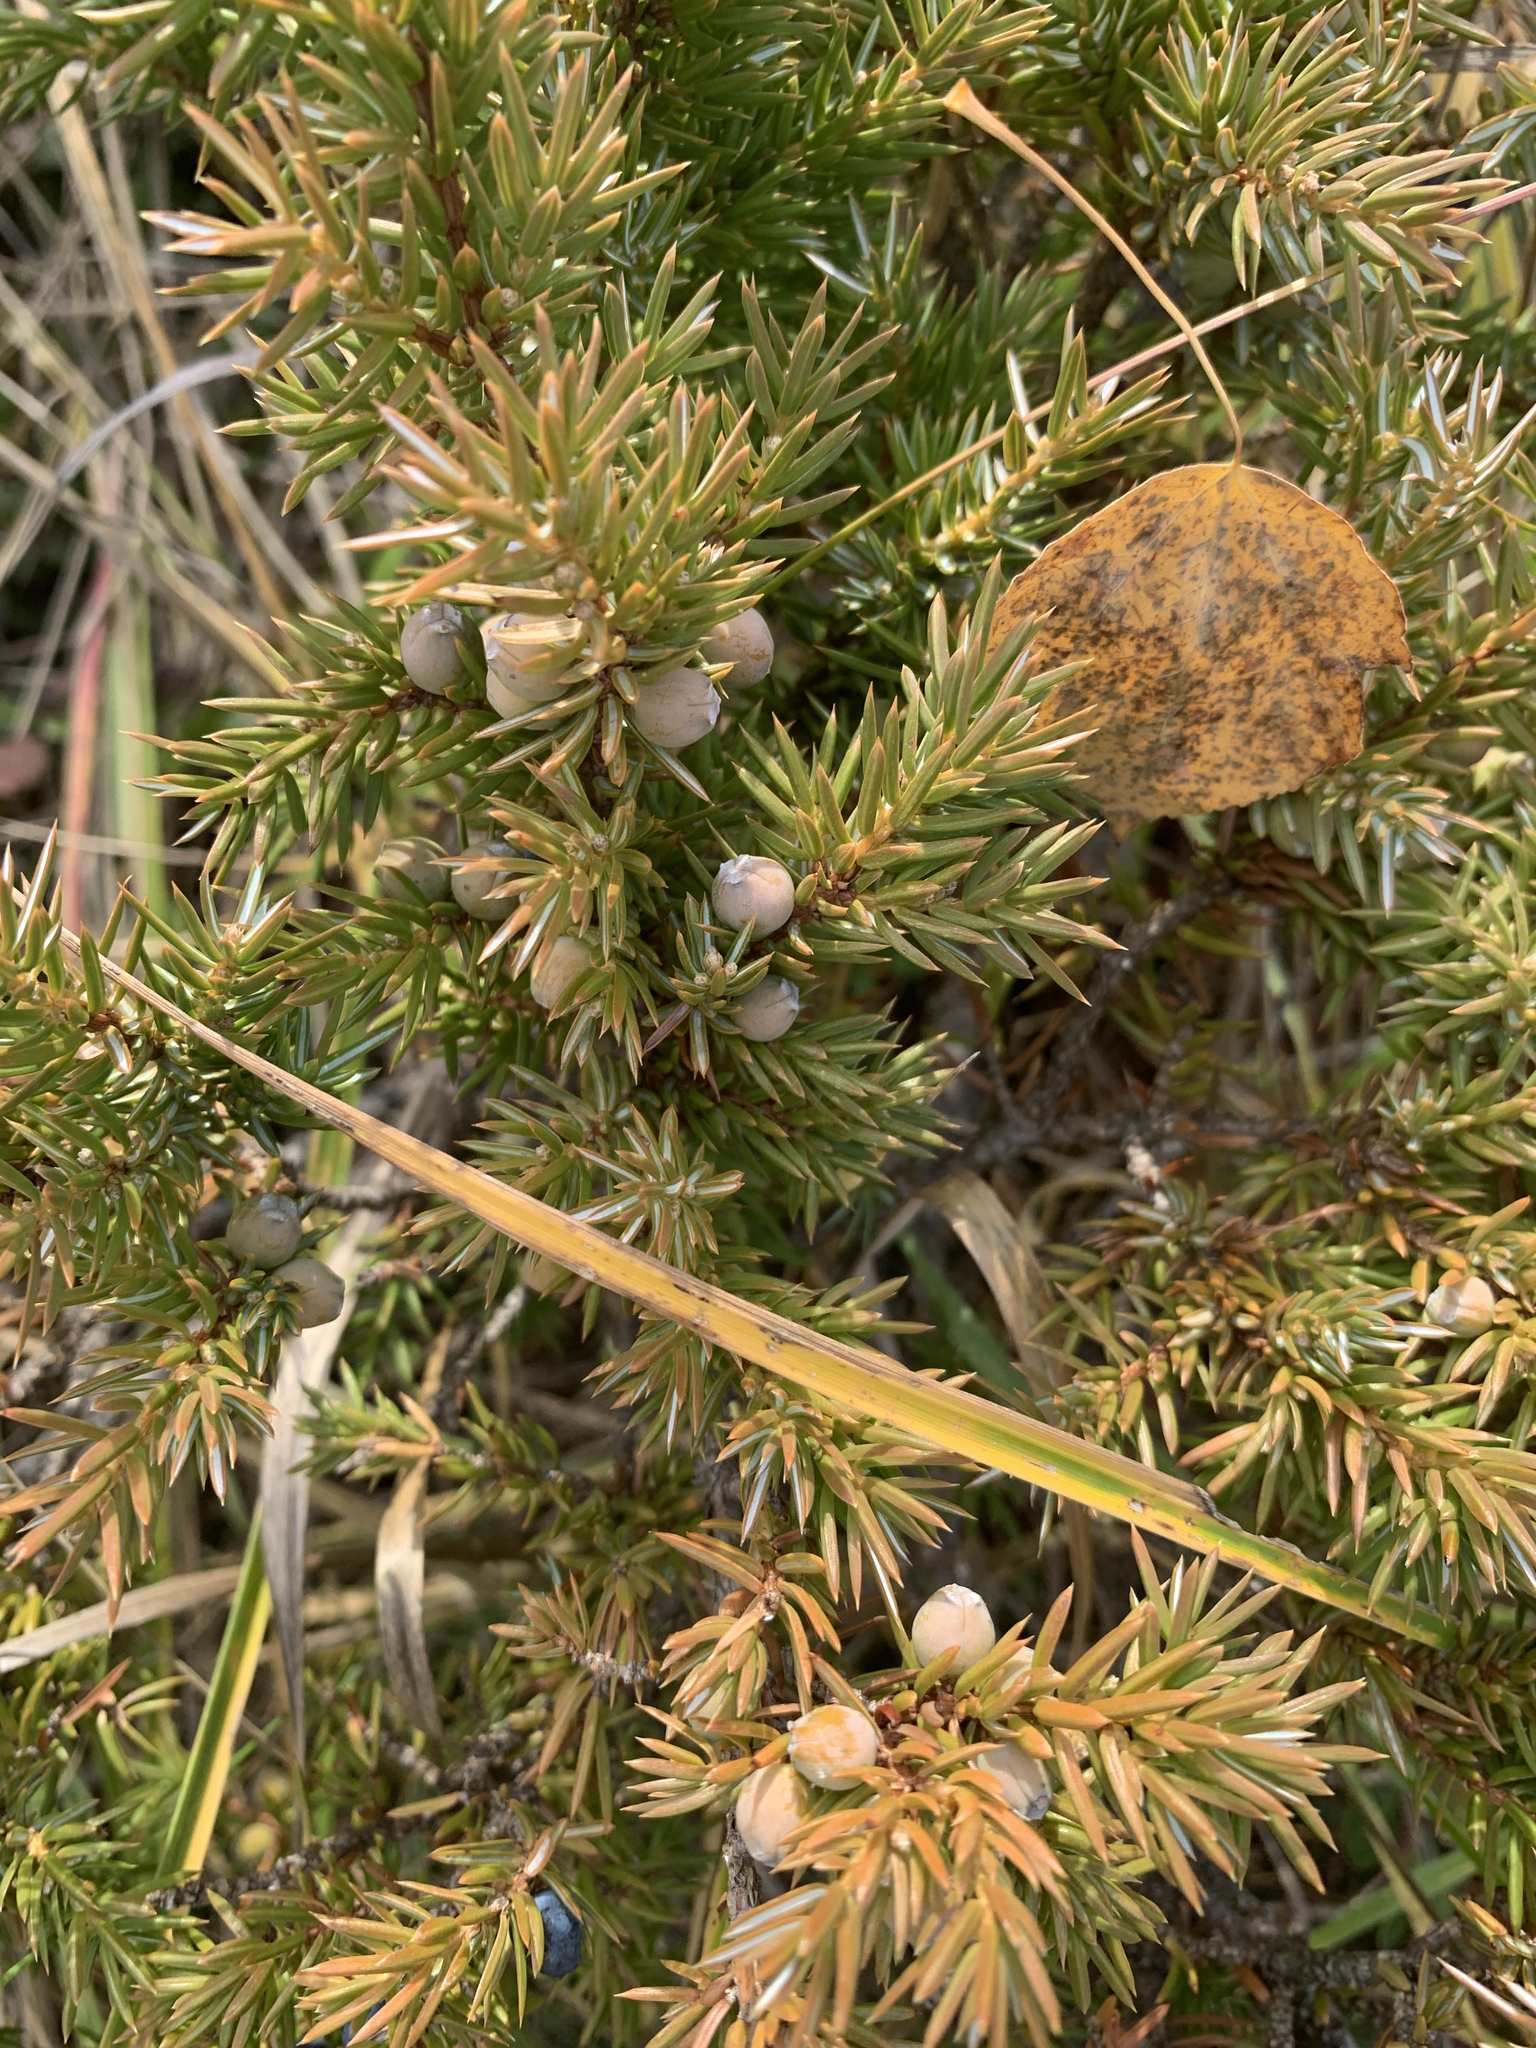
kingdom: Plantae
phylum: Tracheophyta
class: Pinopsida
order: Pinales
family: Cupressaceae
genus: Juniperus
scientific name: Juniperus communis
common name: Common juniper
